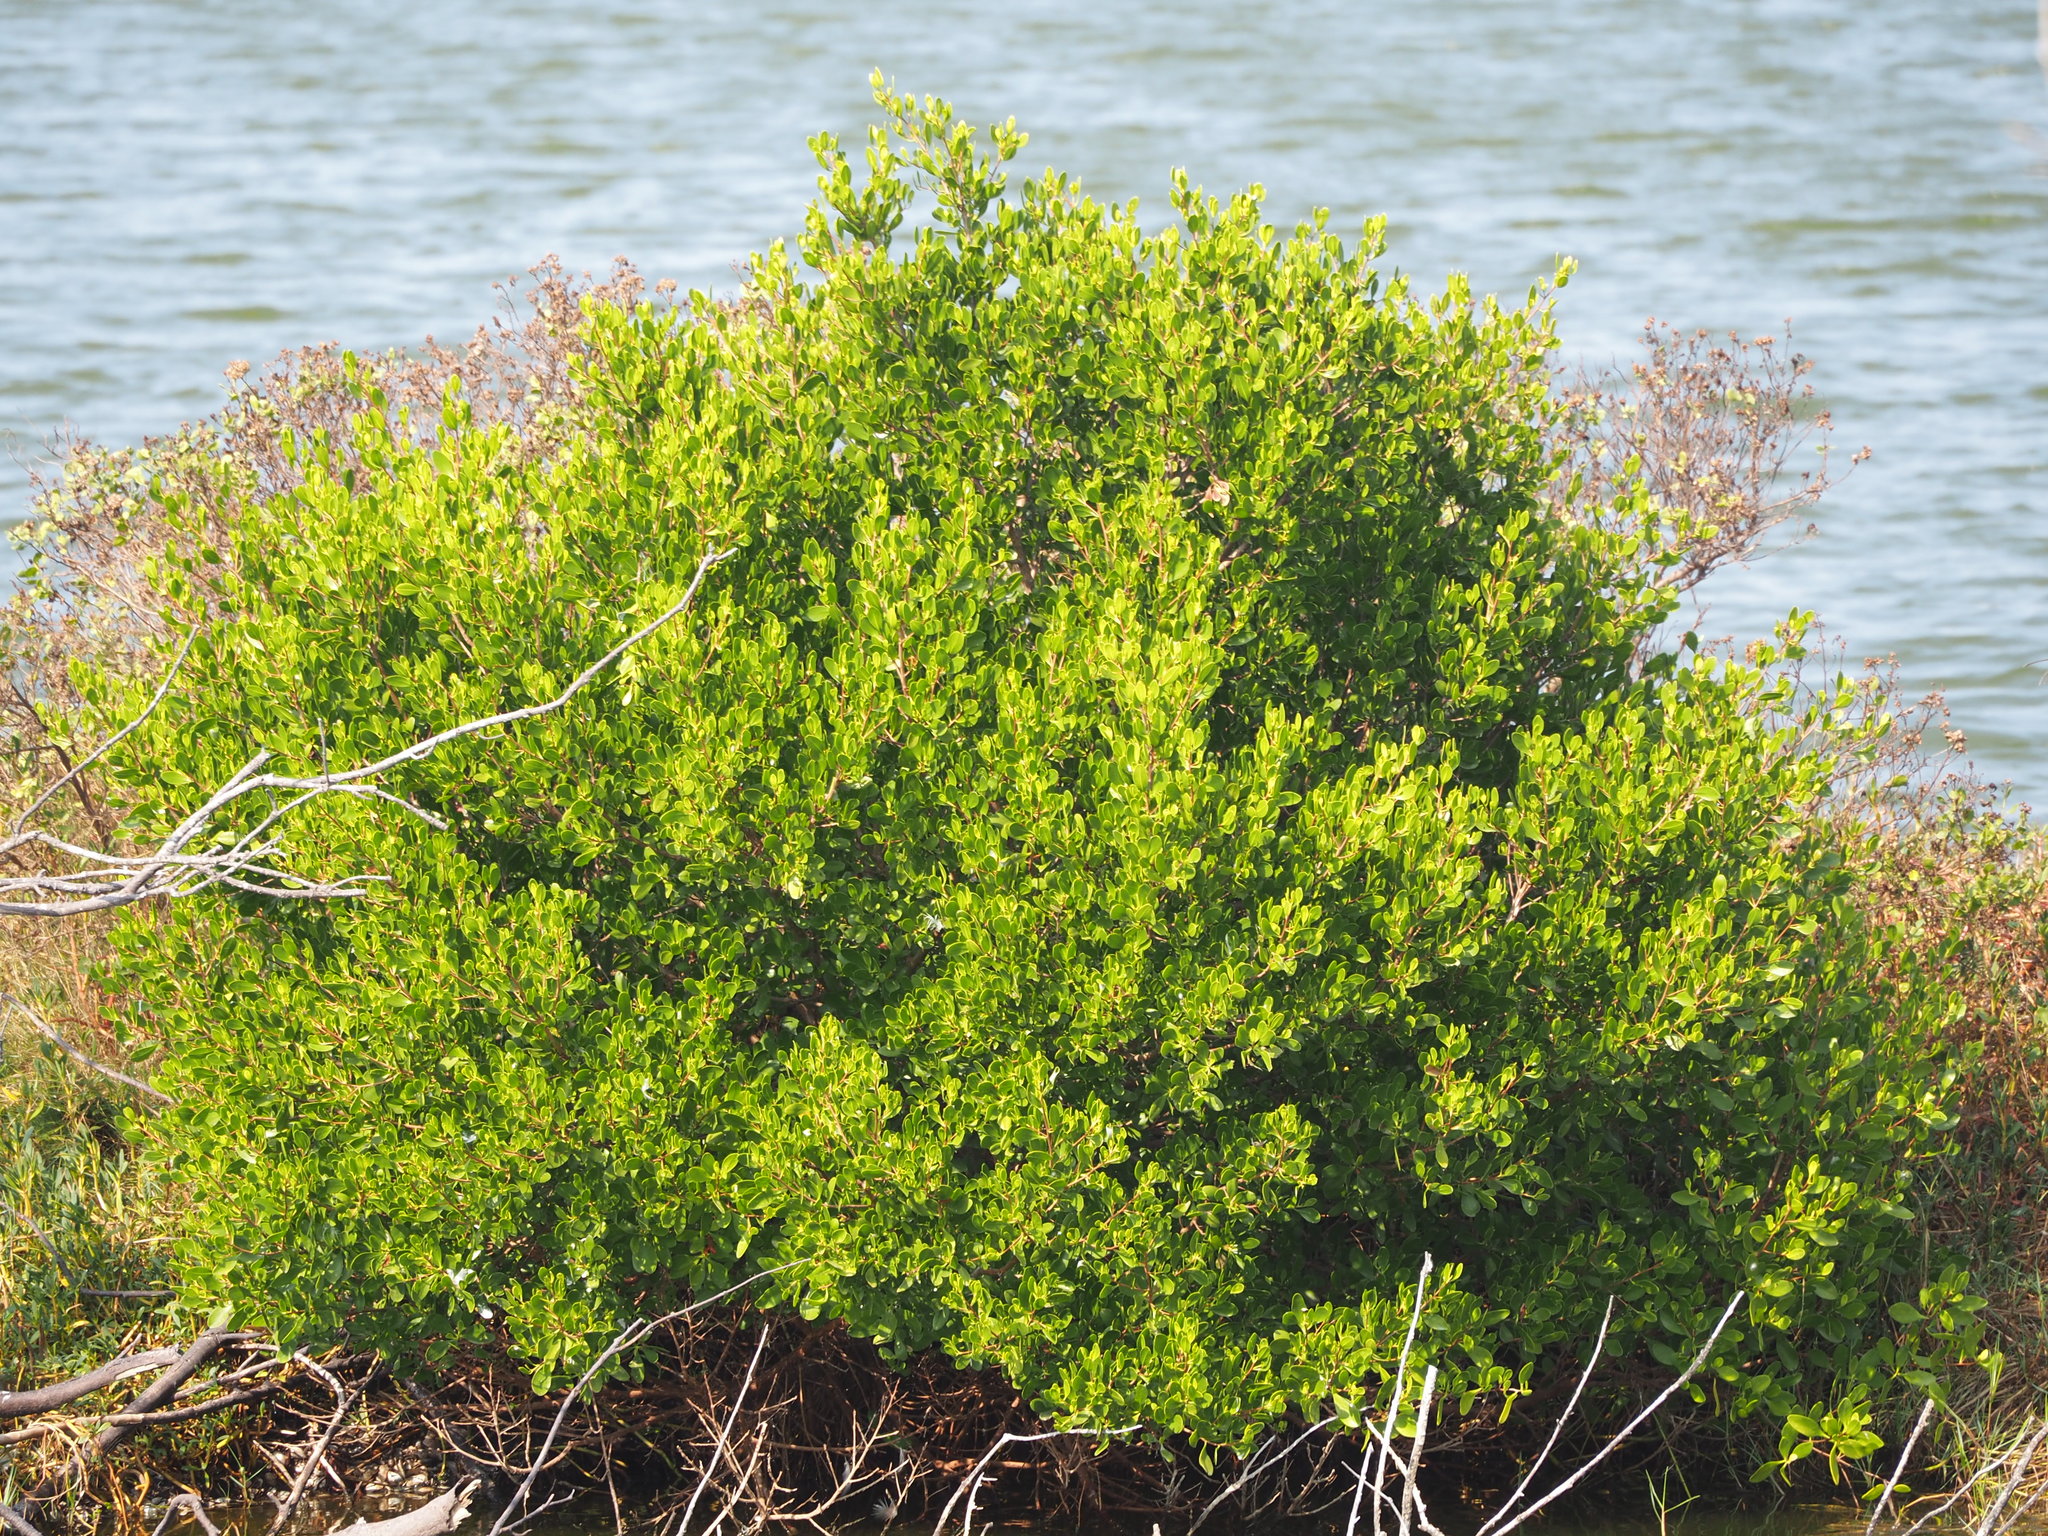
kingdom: Plantae
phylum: Tracheophyta
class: Magnoliopsida
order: Myrtales
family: Combretaceae
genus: Lumnitzera
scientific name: Lumnitzera racemosa
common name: White-flowered black mangrove
